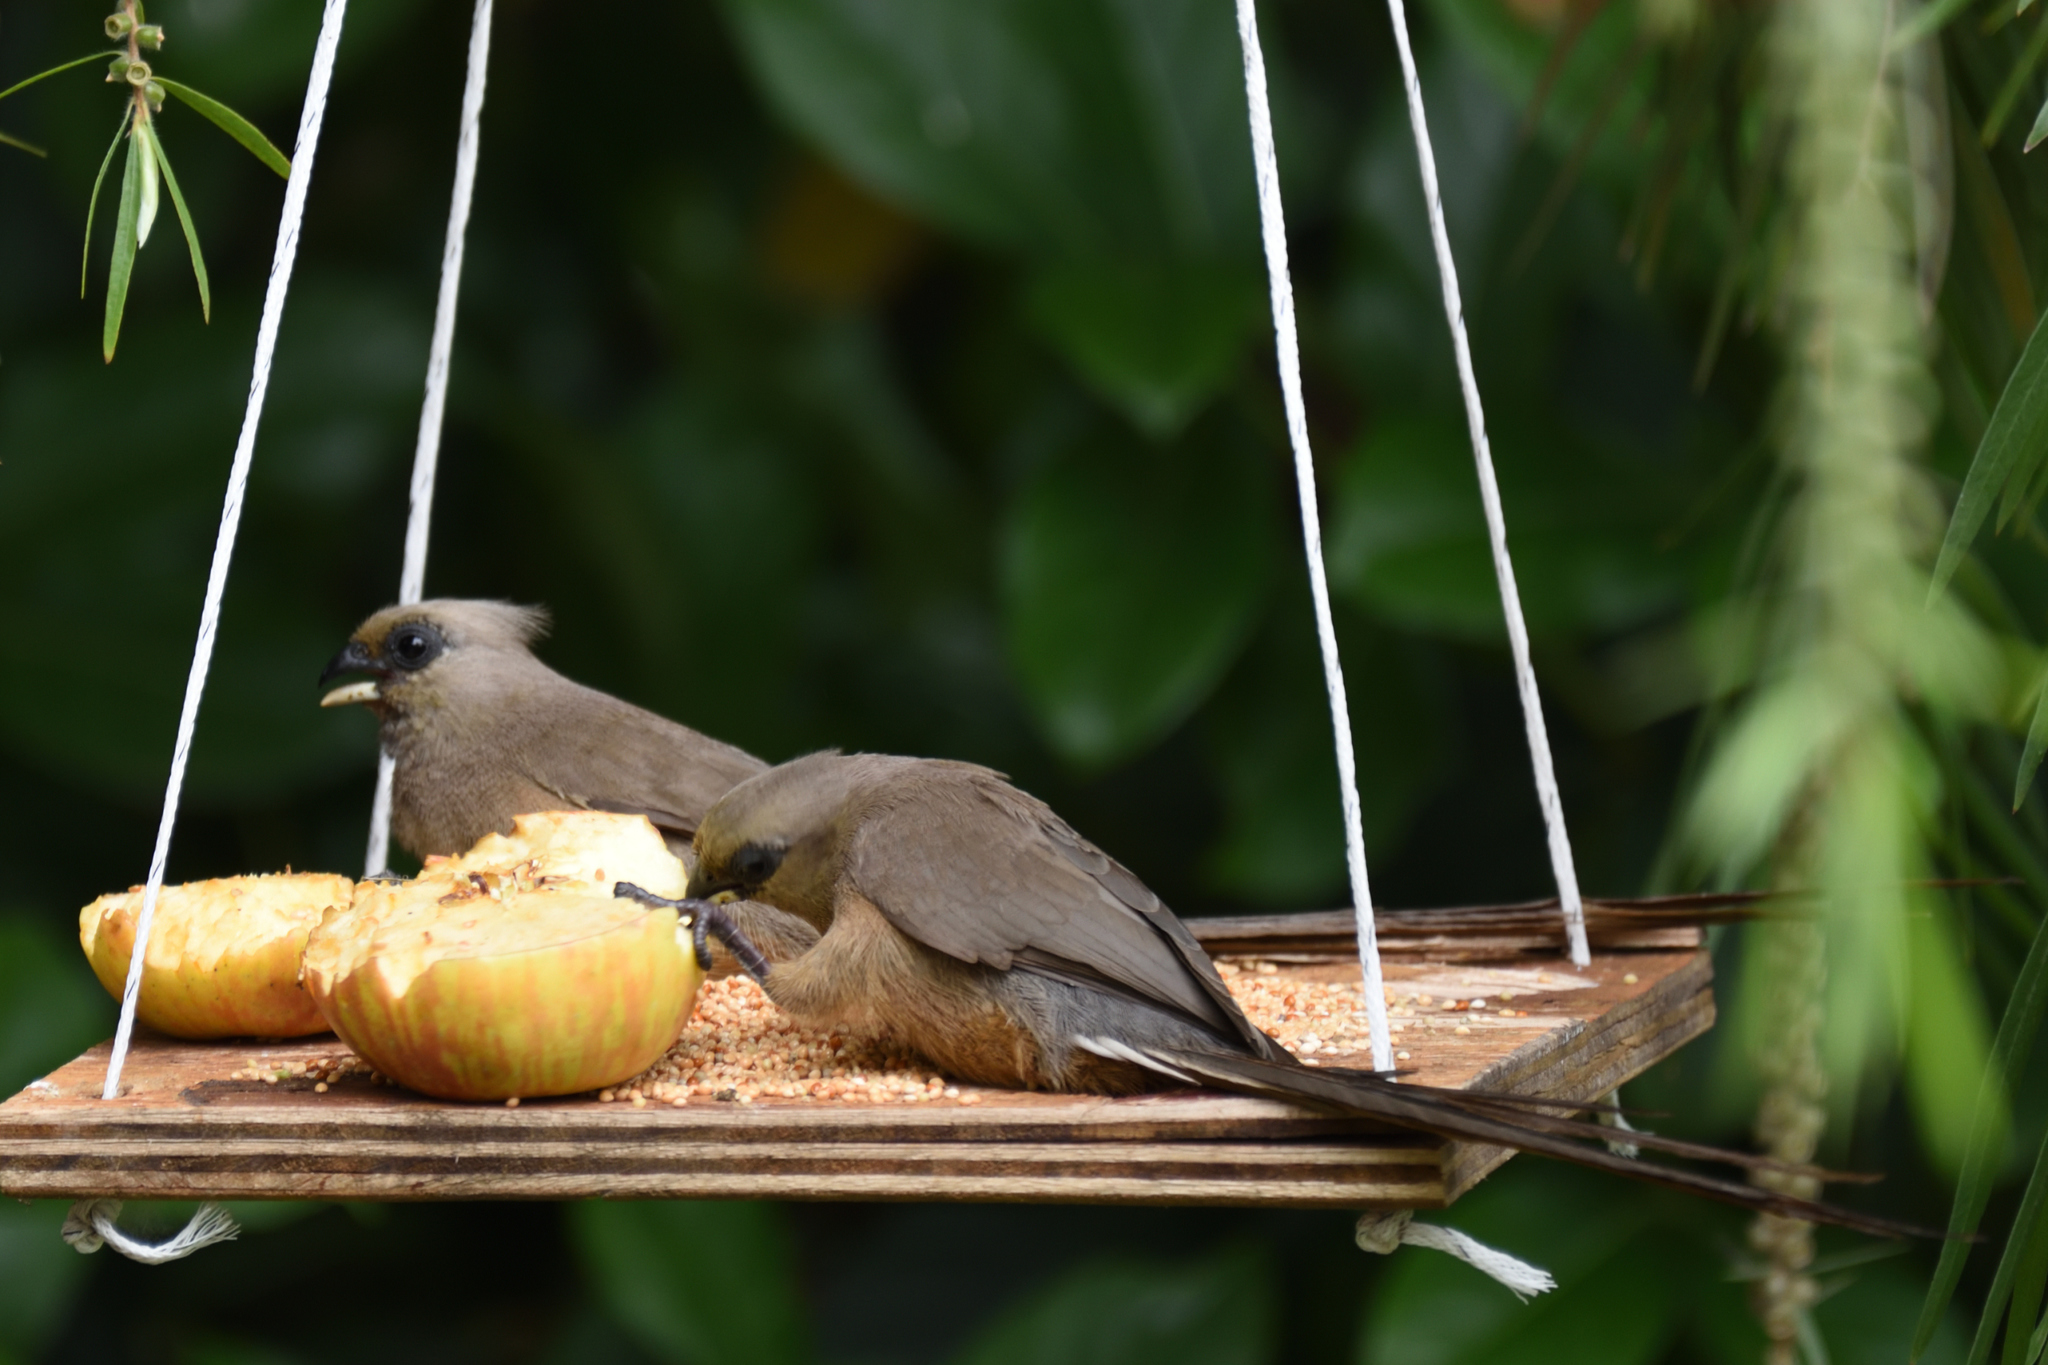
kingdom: Animalia
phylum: Chordata
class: Aves
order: Coliiformes
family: Coliidae
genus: Colius
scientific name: Colius striatus
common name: Speckled mousebird
